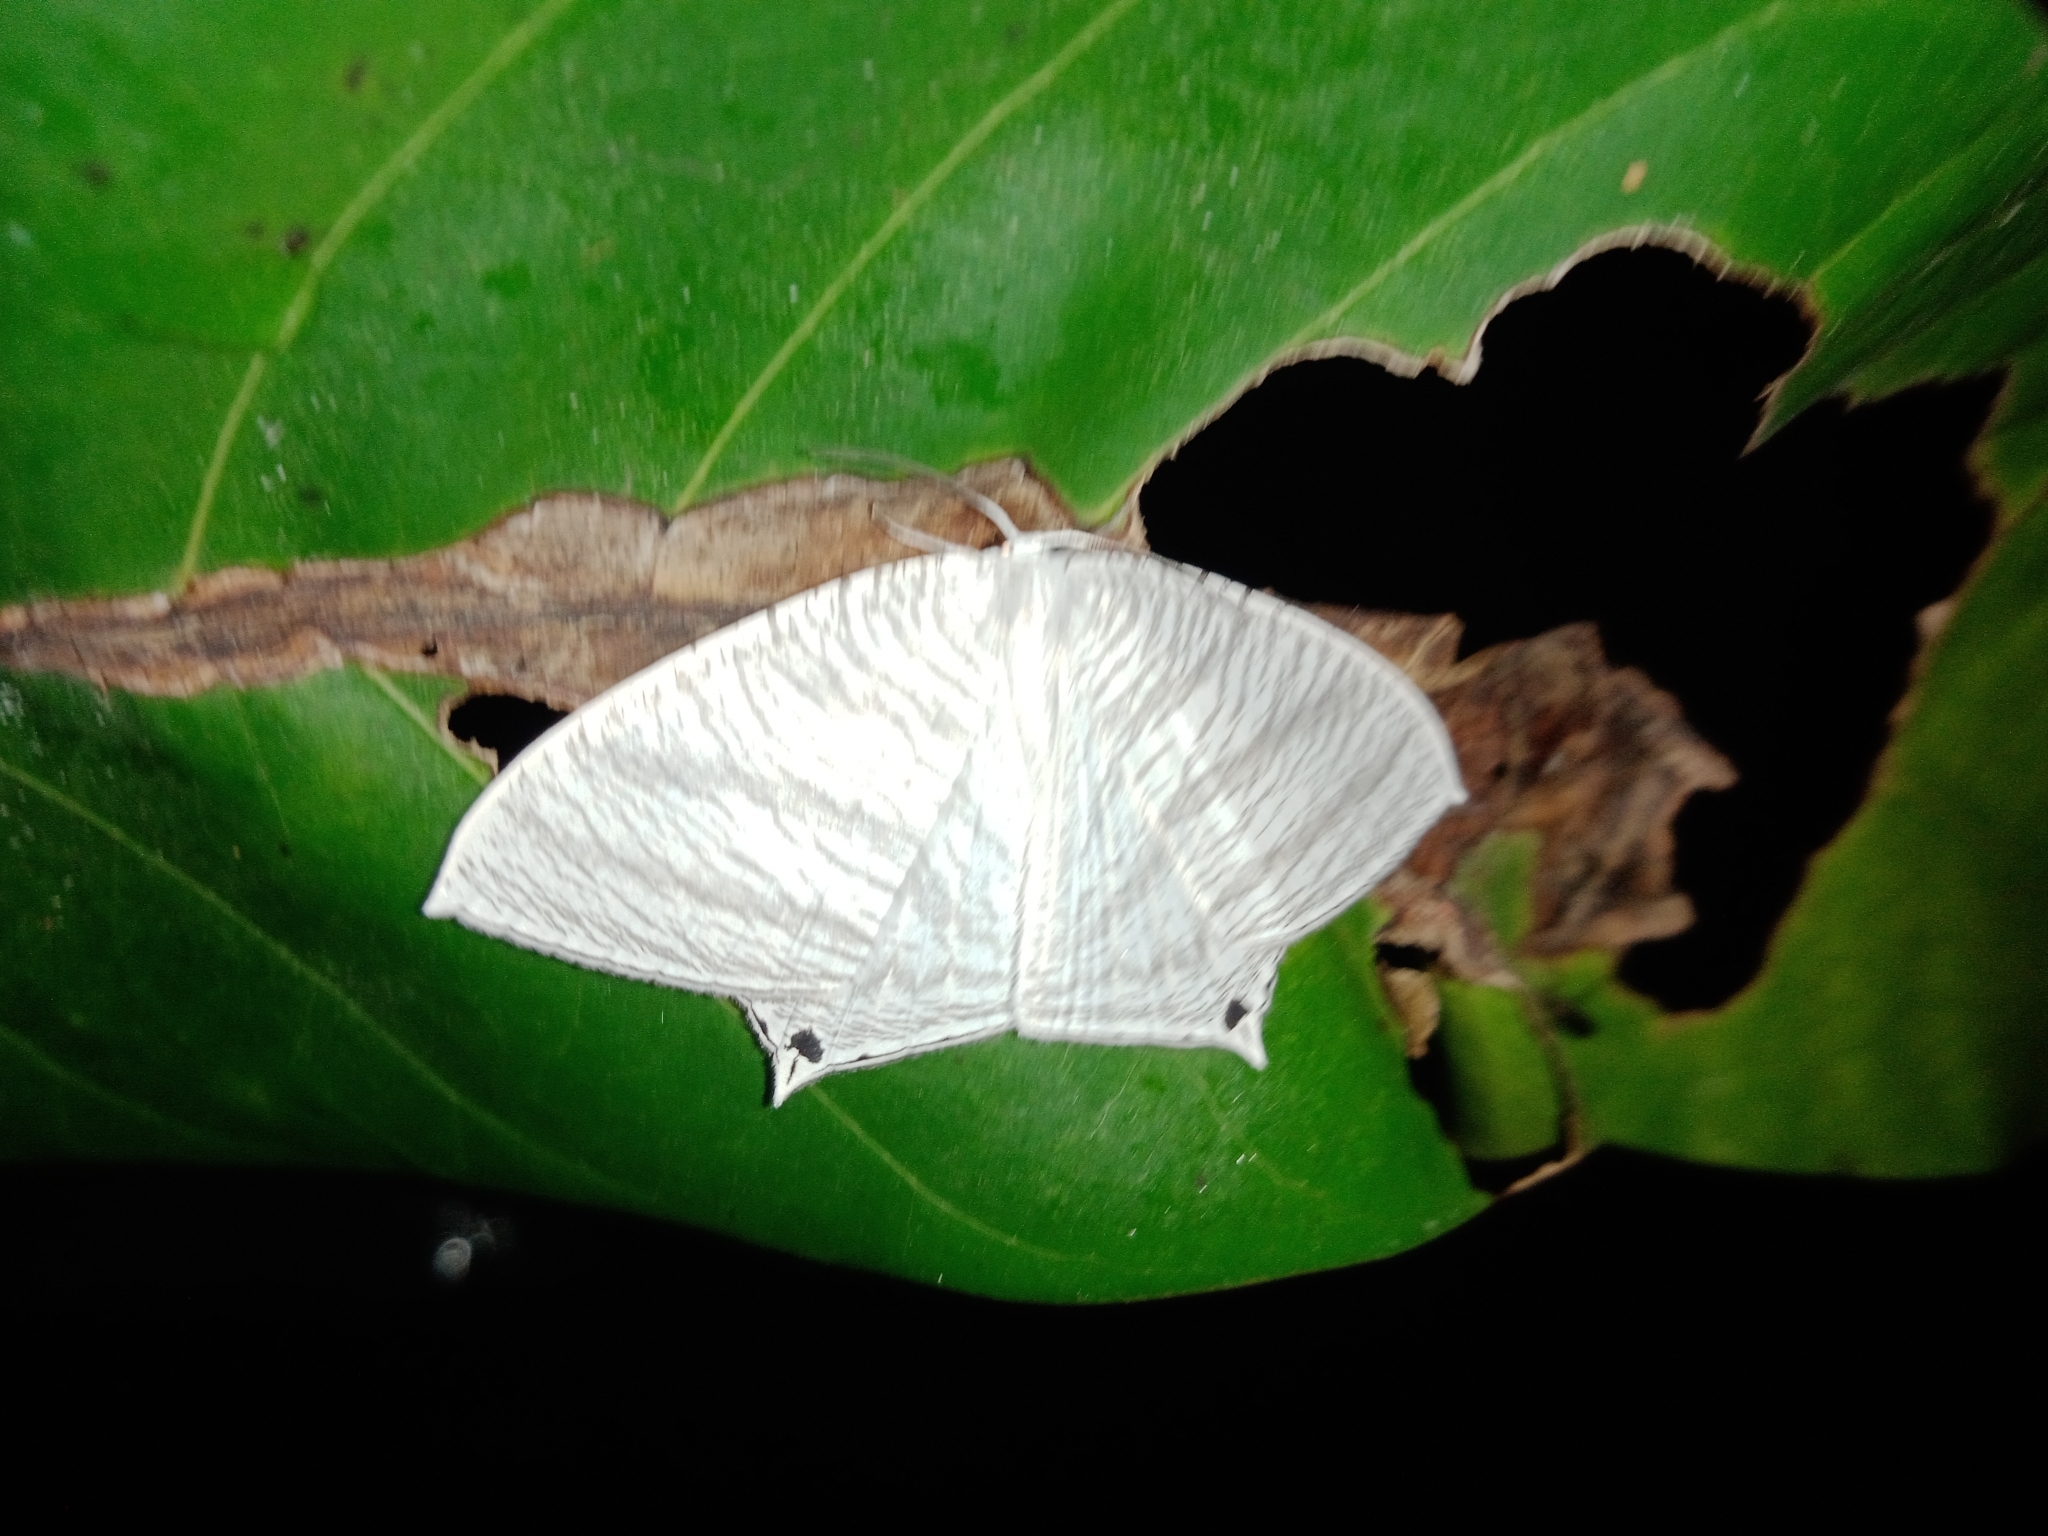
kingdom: Animalia
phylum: Arthropoda
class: Insecta
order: Lepidoptera
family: Uraniidae
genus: Micronia
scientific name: Micronia aculeata
